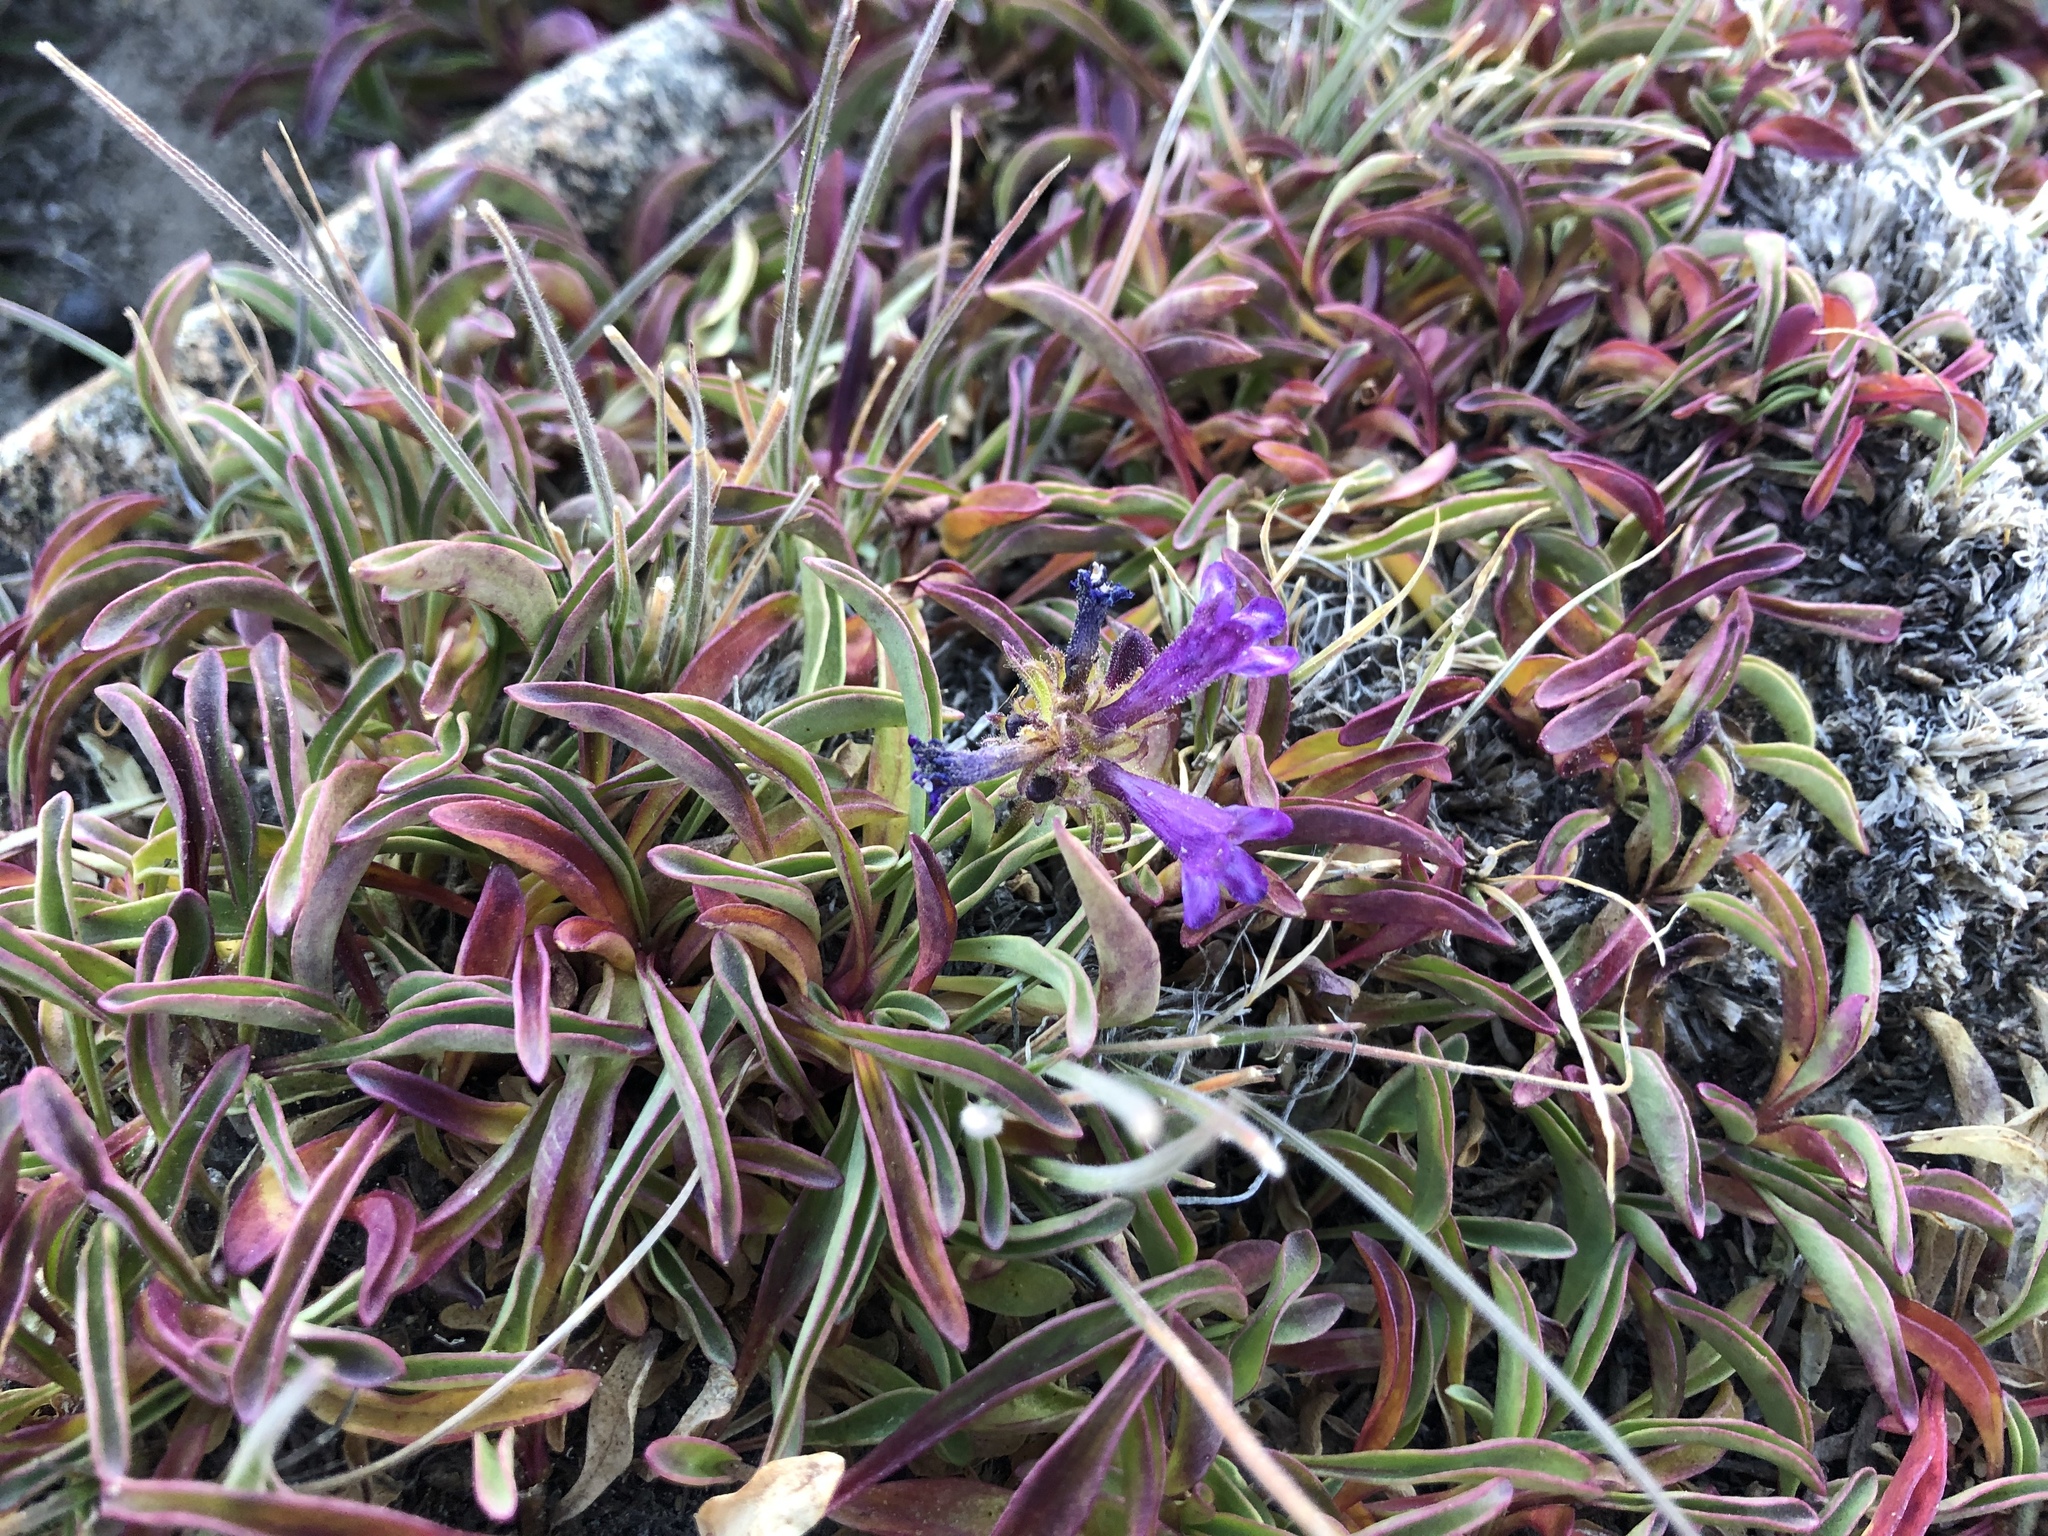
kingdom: Plantae
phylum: Tracheophyta
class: Magnoliopsida
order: Lamiales
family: Plantaginaceae
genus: Penstemon
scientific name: Penstemon heterodoxus
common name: Sierran penstemon
